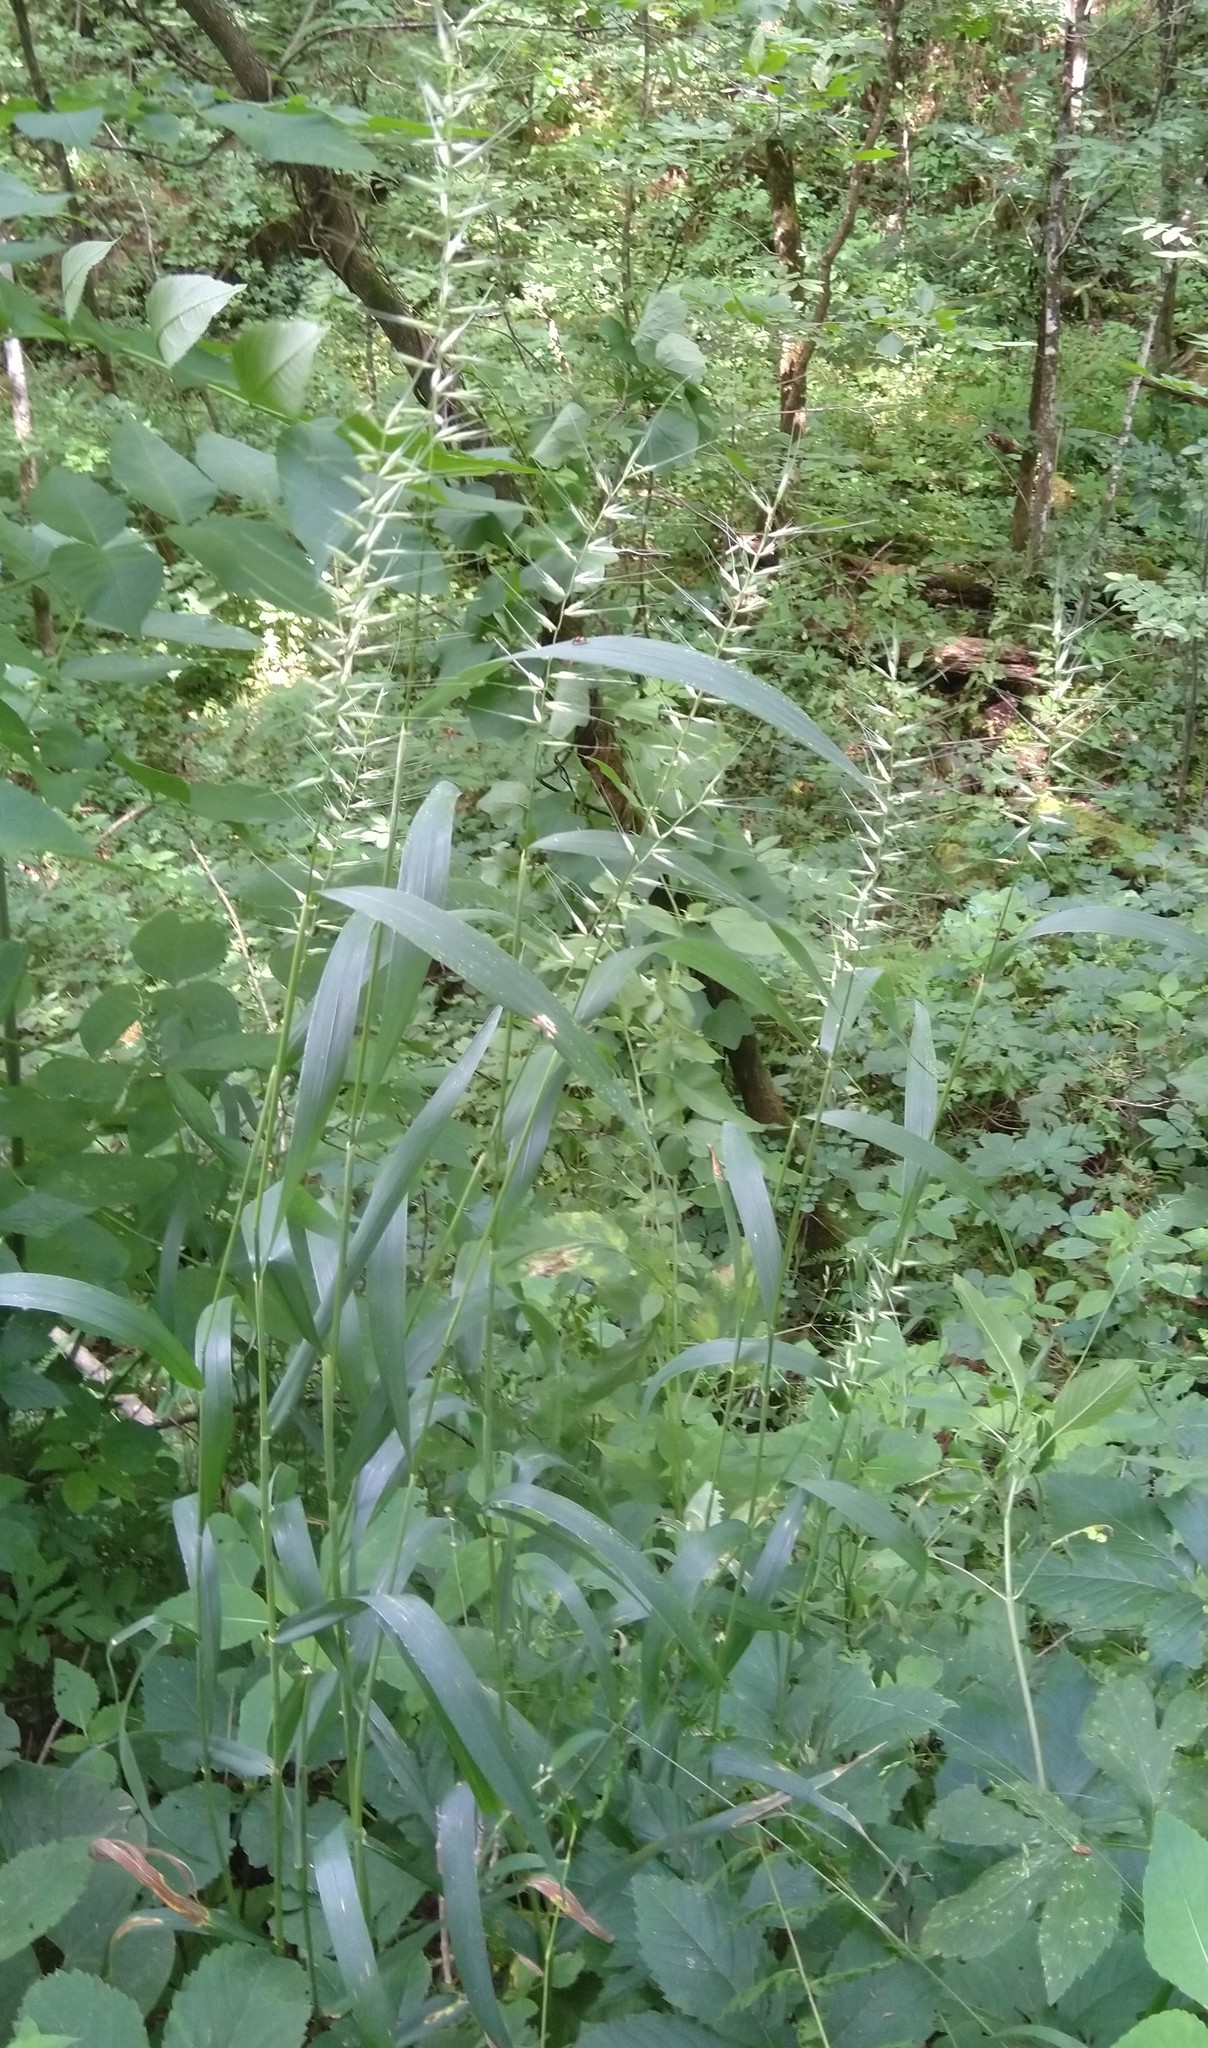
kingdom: Plantae
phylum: Tracheophyta
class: Liliopsida
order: Poales
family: Poaceae
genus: Elymus
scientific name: Elymus hystrix
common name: Bottlebrush grass
